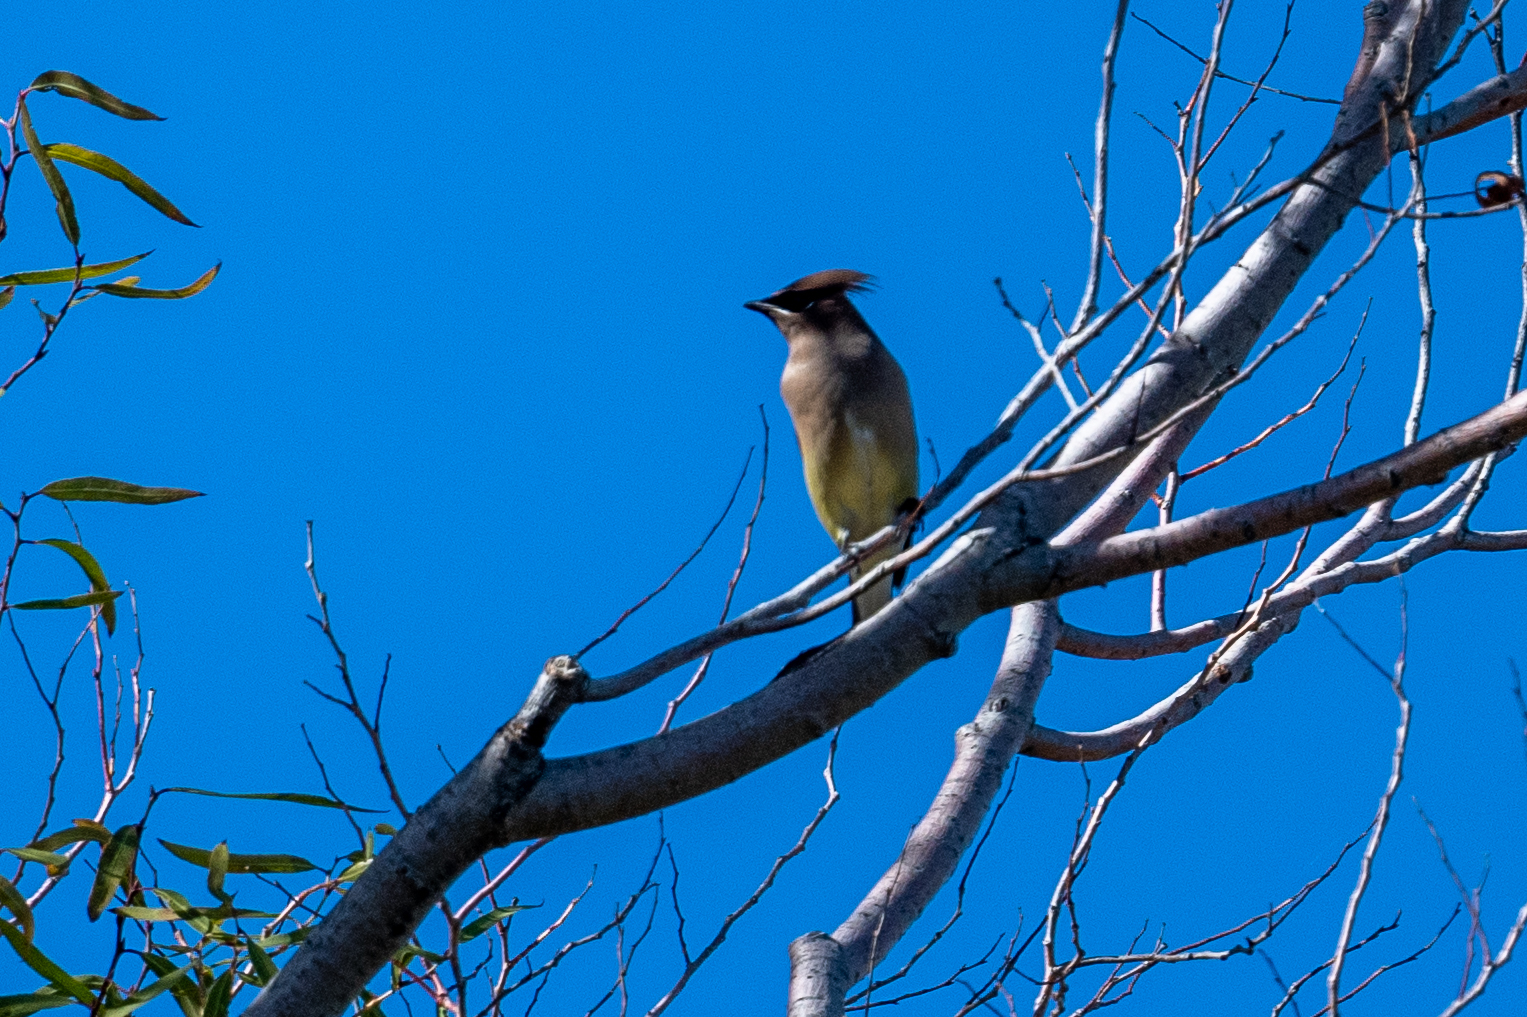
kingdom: Animalia
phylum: Chordata
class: Aves
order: Passeriformes
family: Bombycillidae
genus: Bombycilla
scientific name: Bombycilla cedrorum
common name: Cedar waxwing
